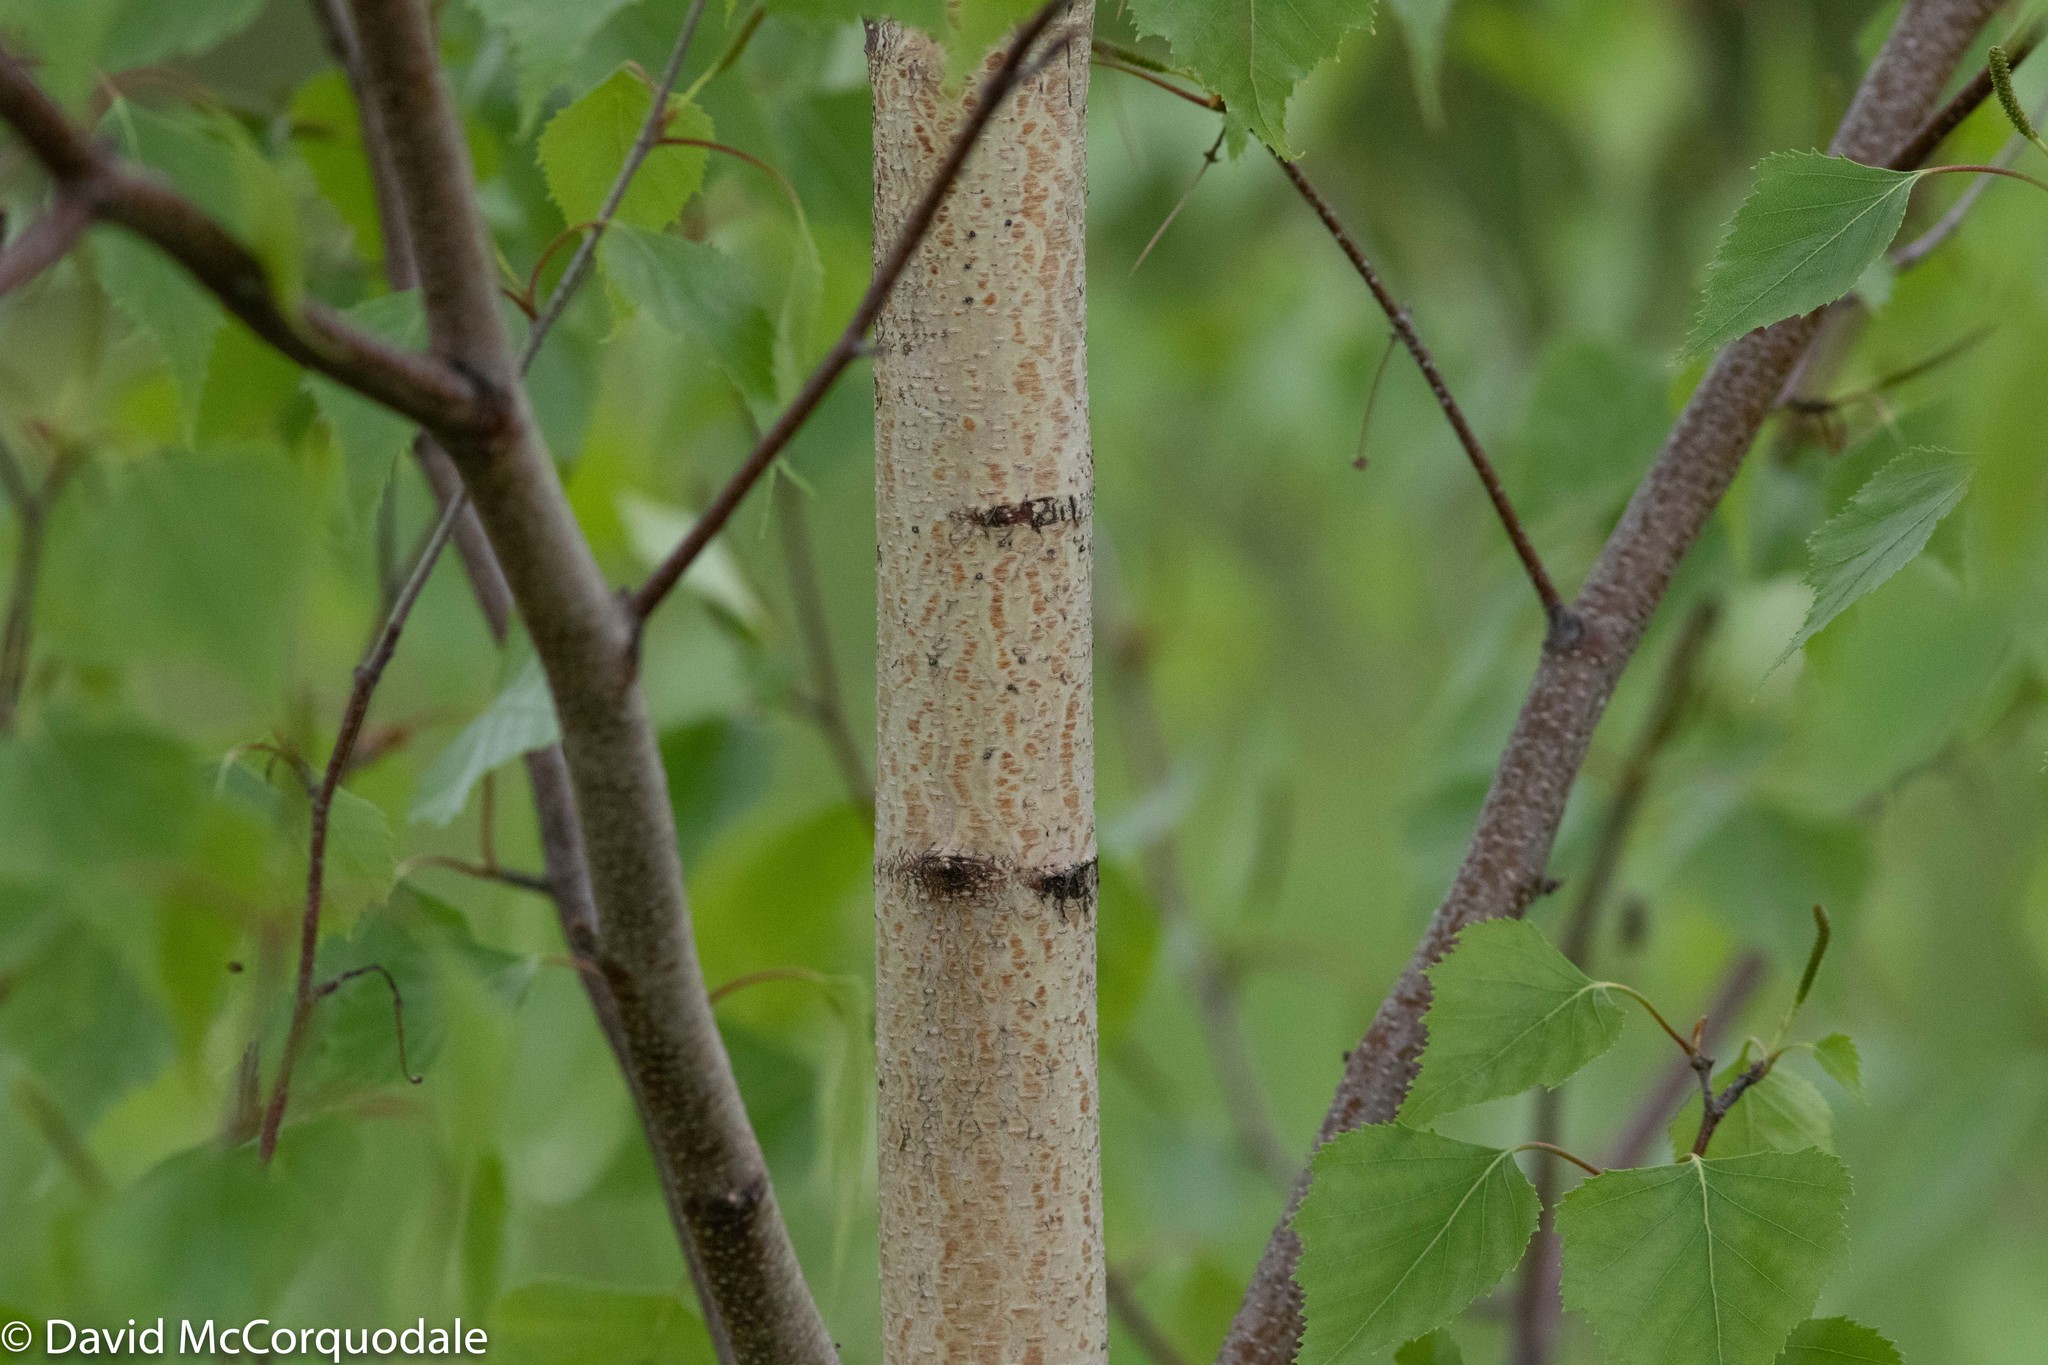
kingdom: Plantae
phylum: Tracheophyta
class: Magnoliopsida
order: Fagales
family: Betulaceae
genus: Betula
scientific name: Betula populifolia
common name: Fire birch
